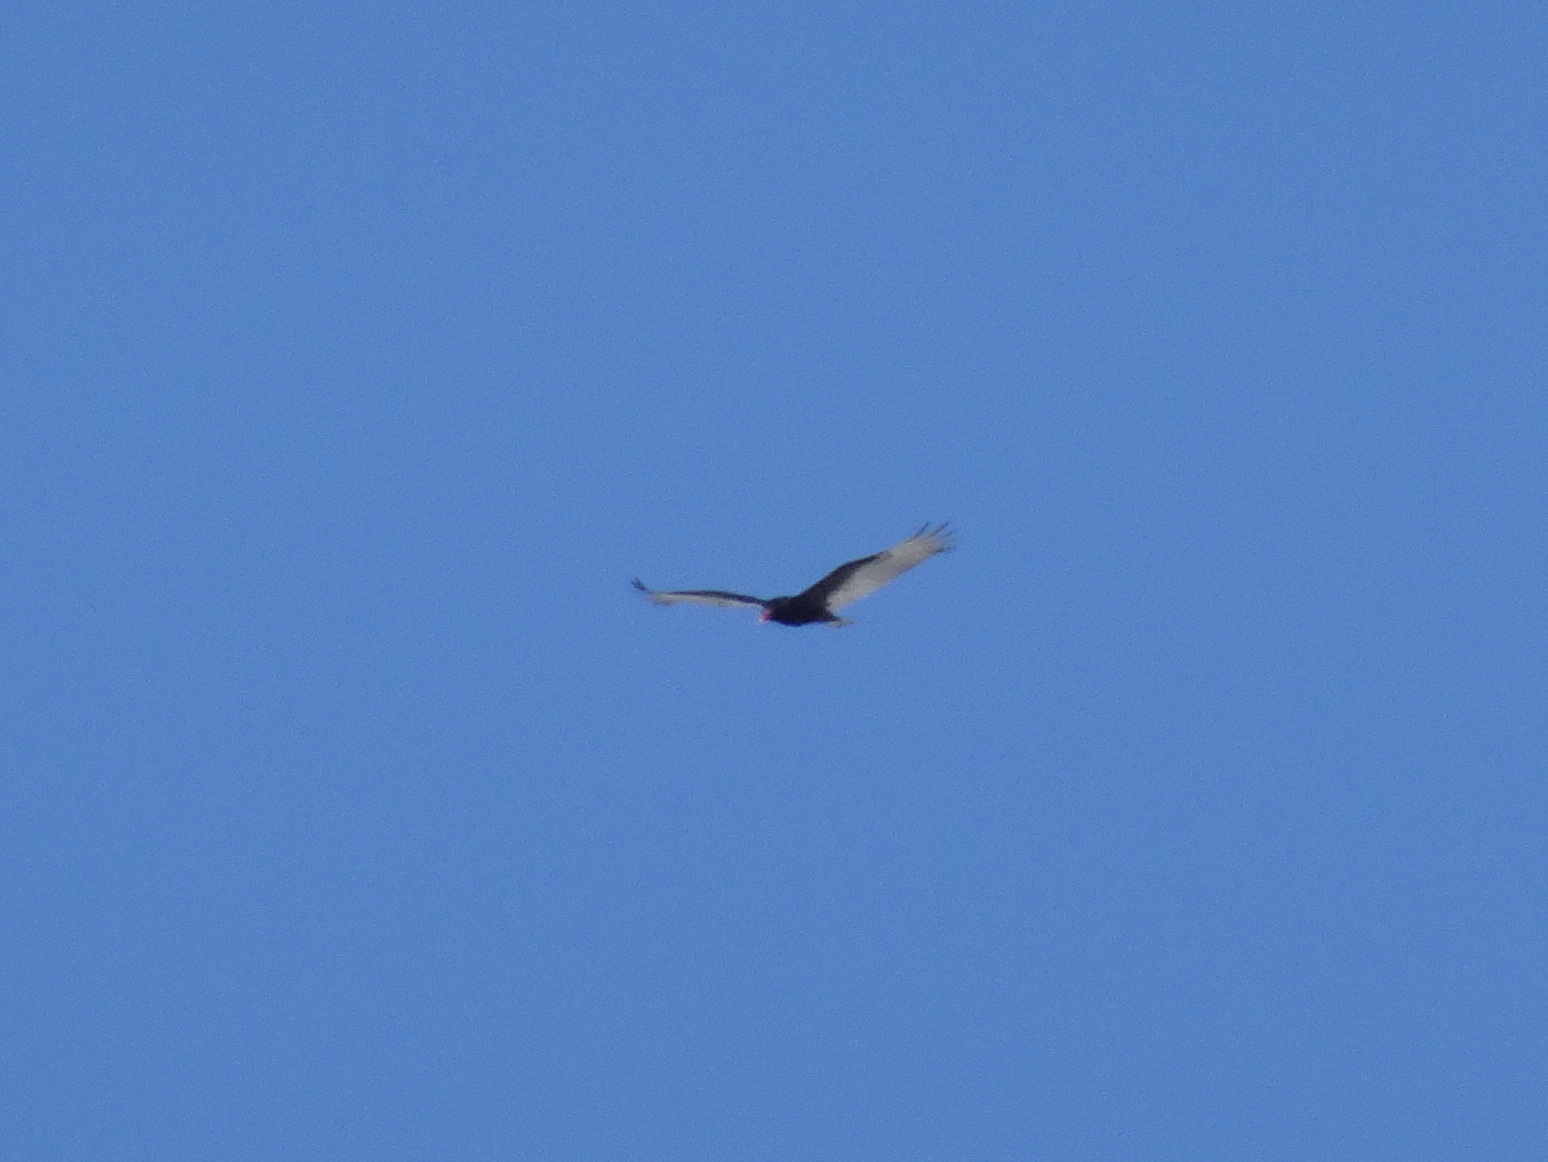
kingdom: Animalia
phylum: Chordata
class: Aves
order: Accipitriformes
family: Cathartidae
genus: Cathartes
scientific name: Cathartes aura
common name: Turkey vulture
